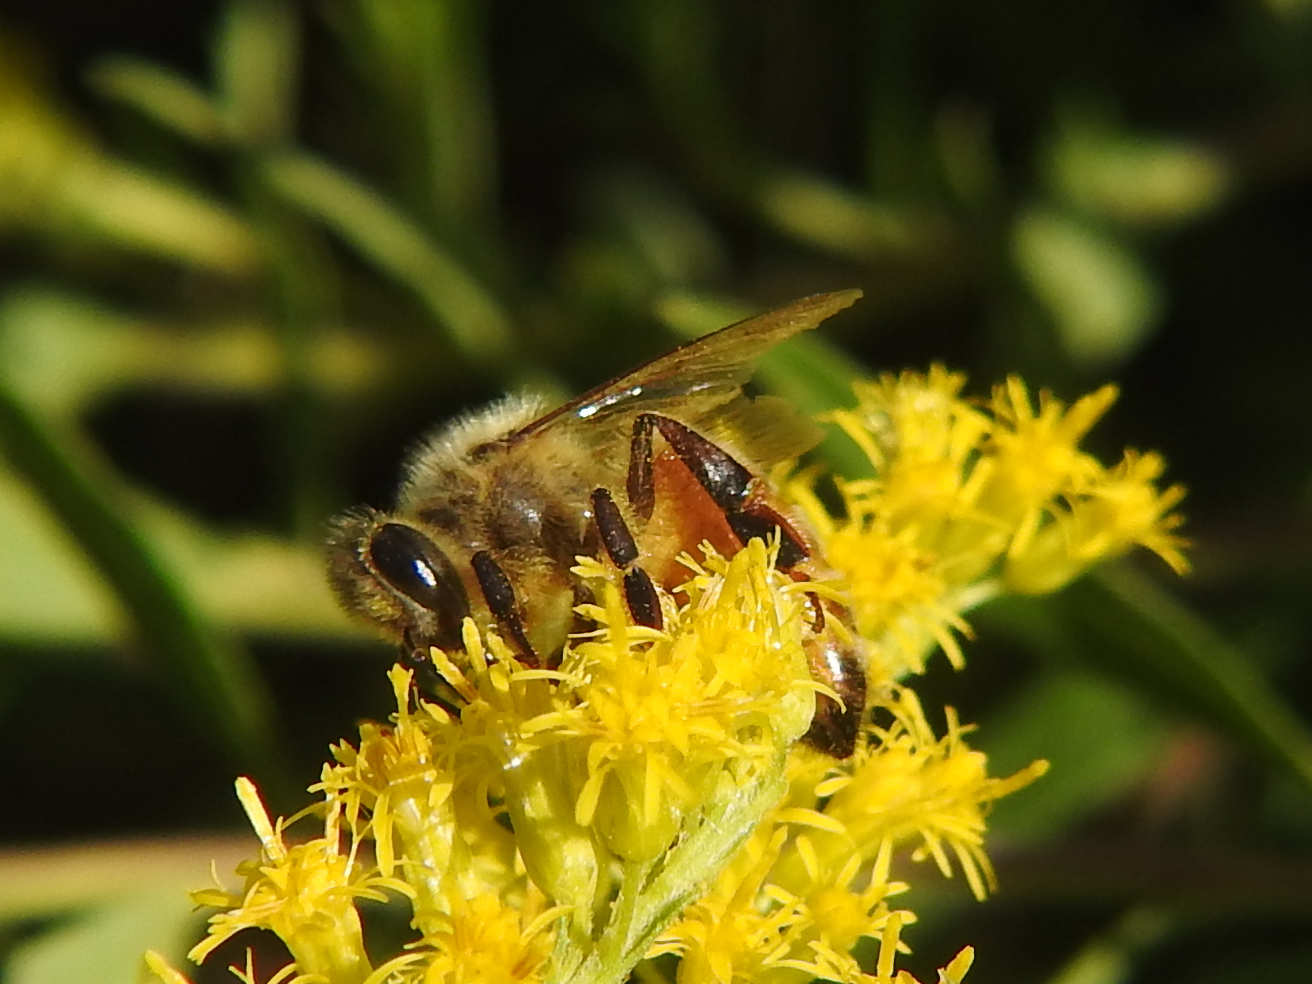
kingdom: Animalia
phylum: Arthropoda
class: Insecta
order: Hymenoptera
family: Apidae
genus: Apis
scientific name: Apis mellifera
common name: Honey bee
